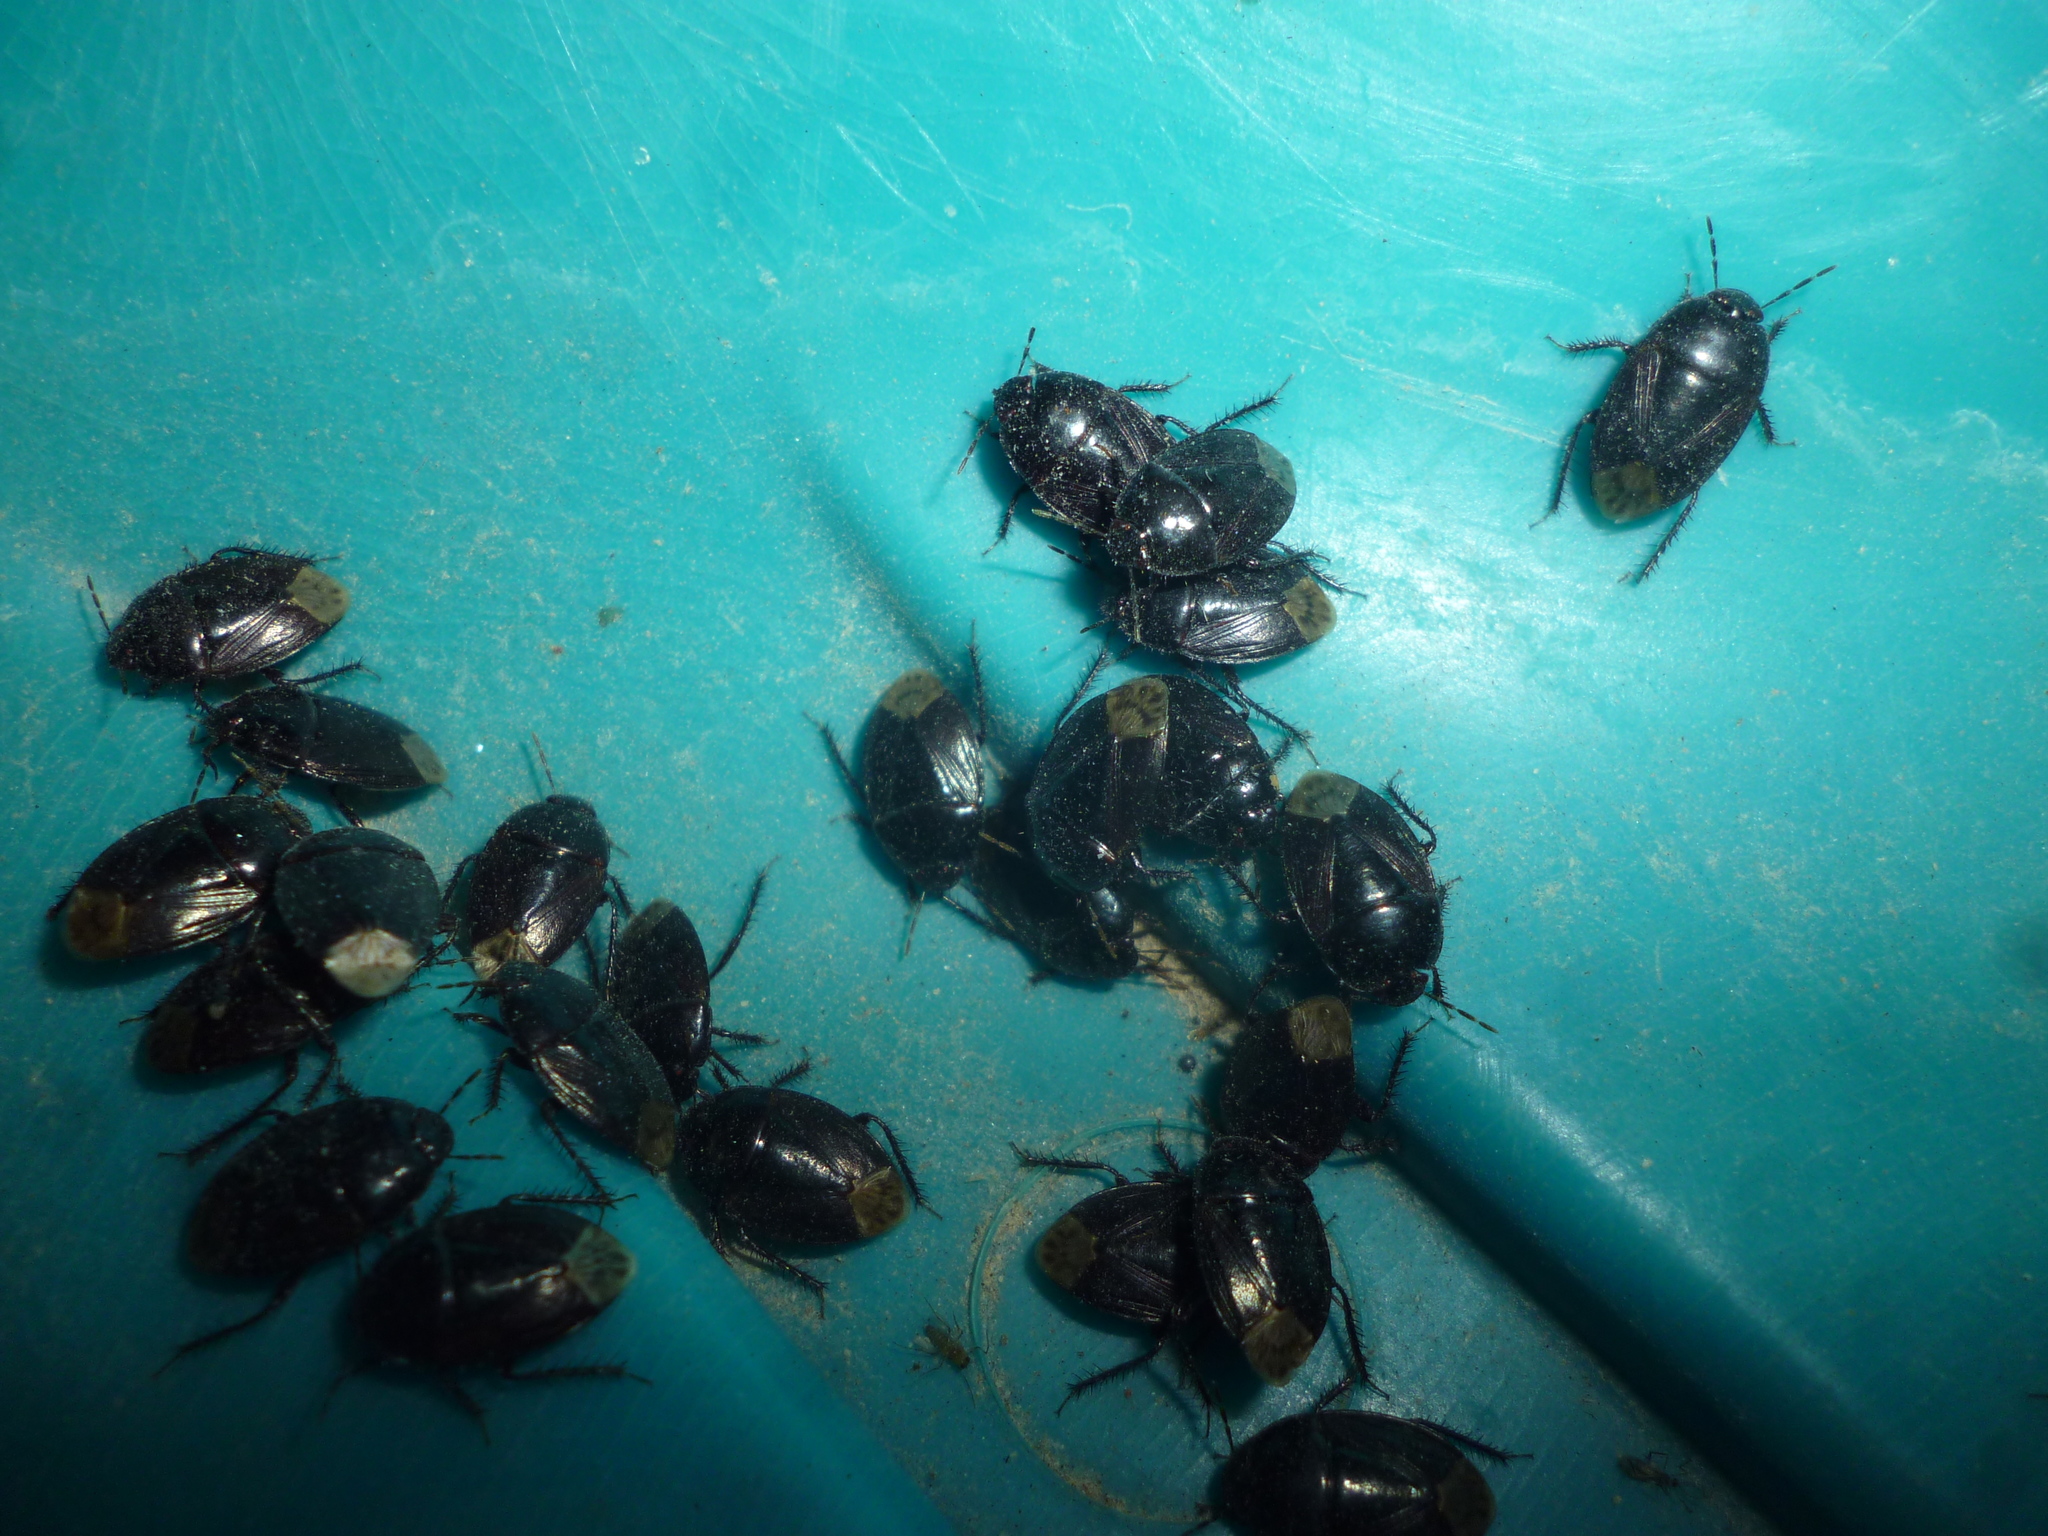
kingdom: Animalia
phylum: Arthropoda
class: Insecta
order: Hemiptera
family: Cydnidae
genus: Macroscytus
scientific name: Macroscytus brunneus
